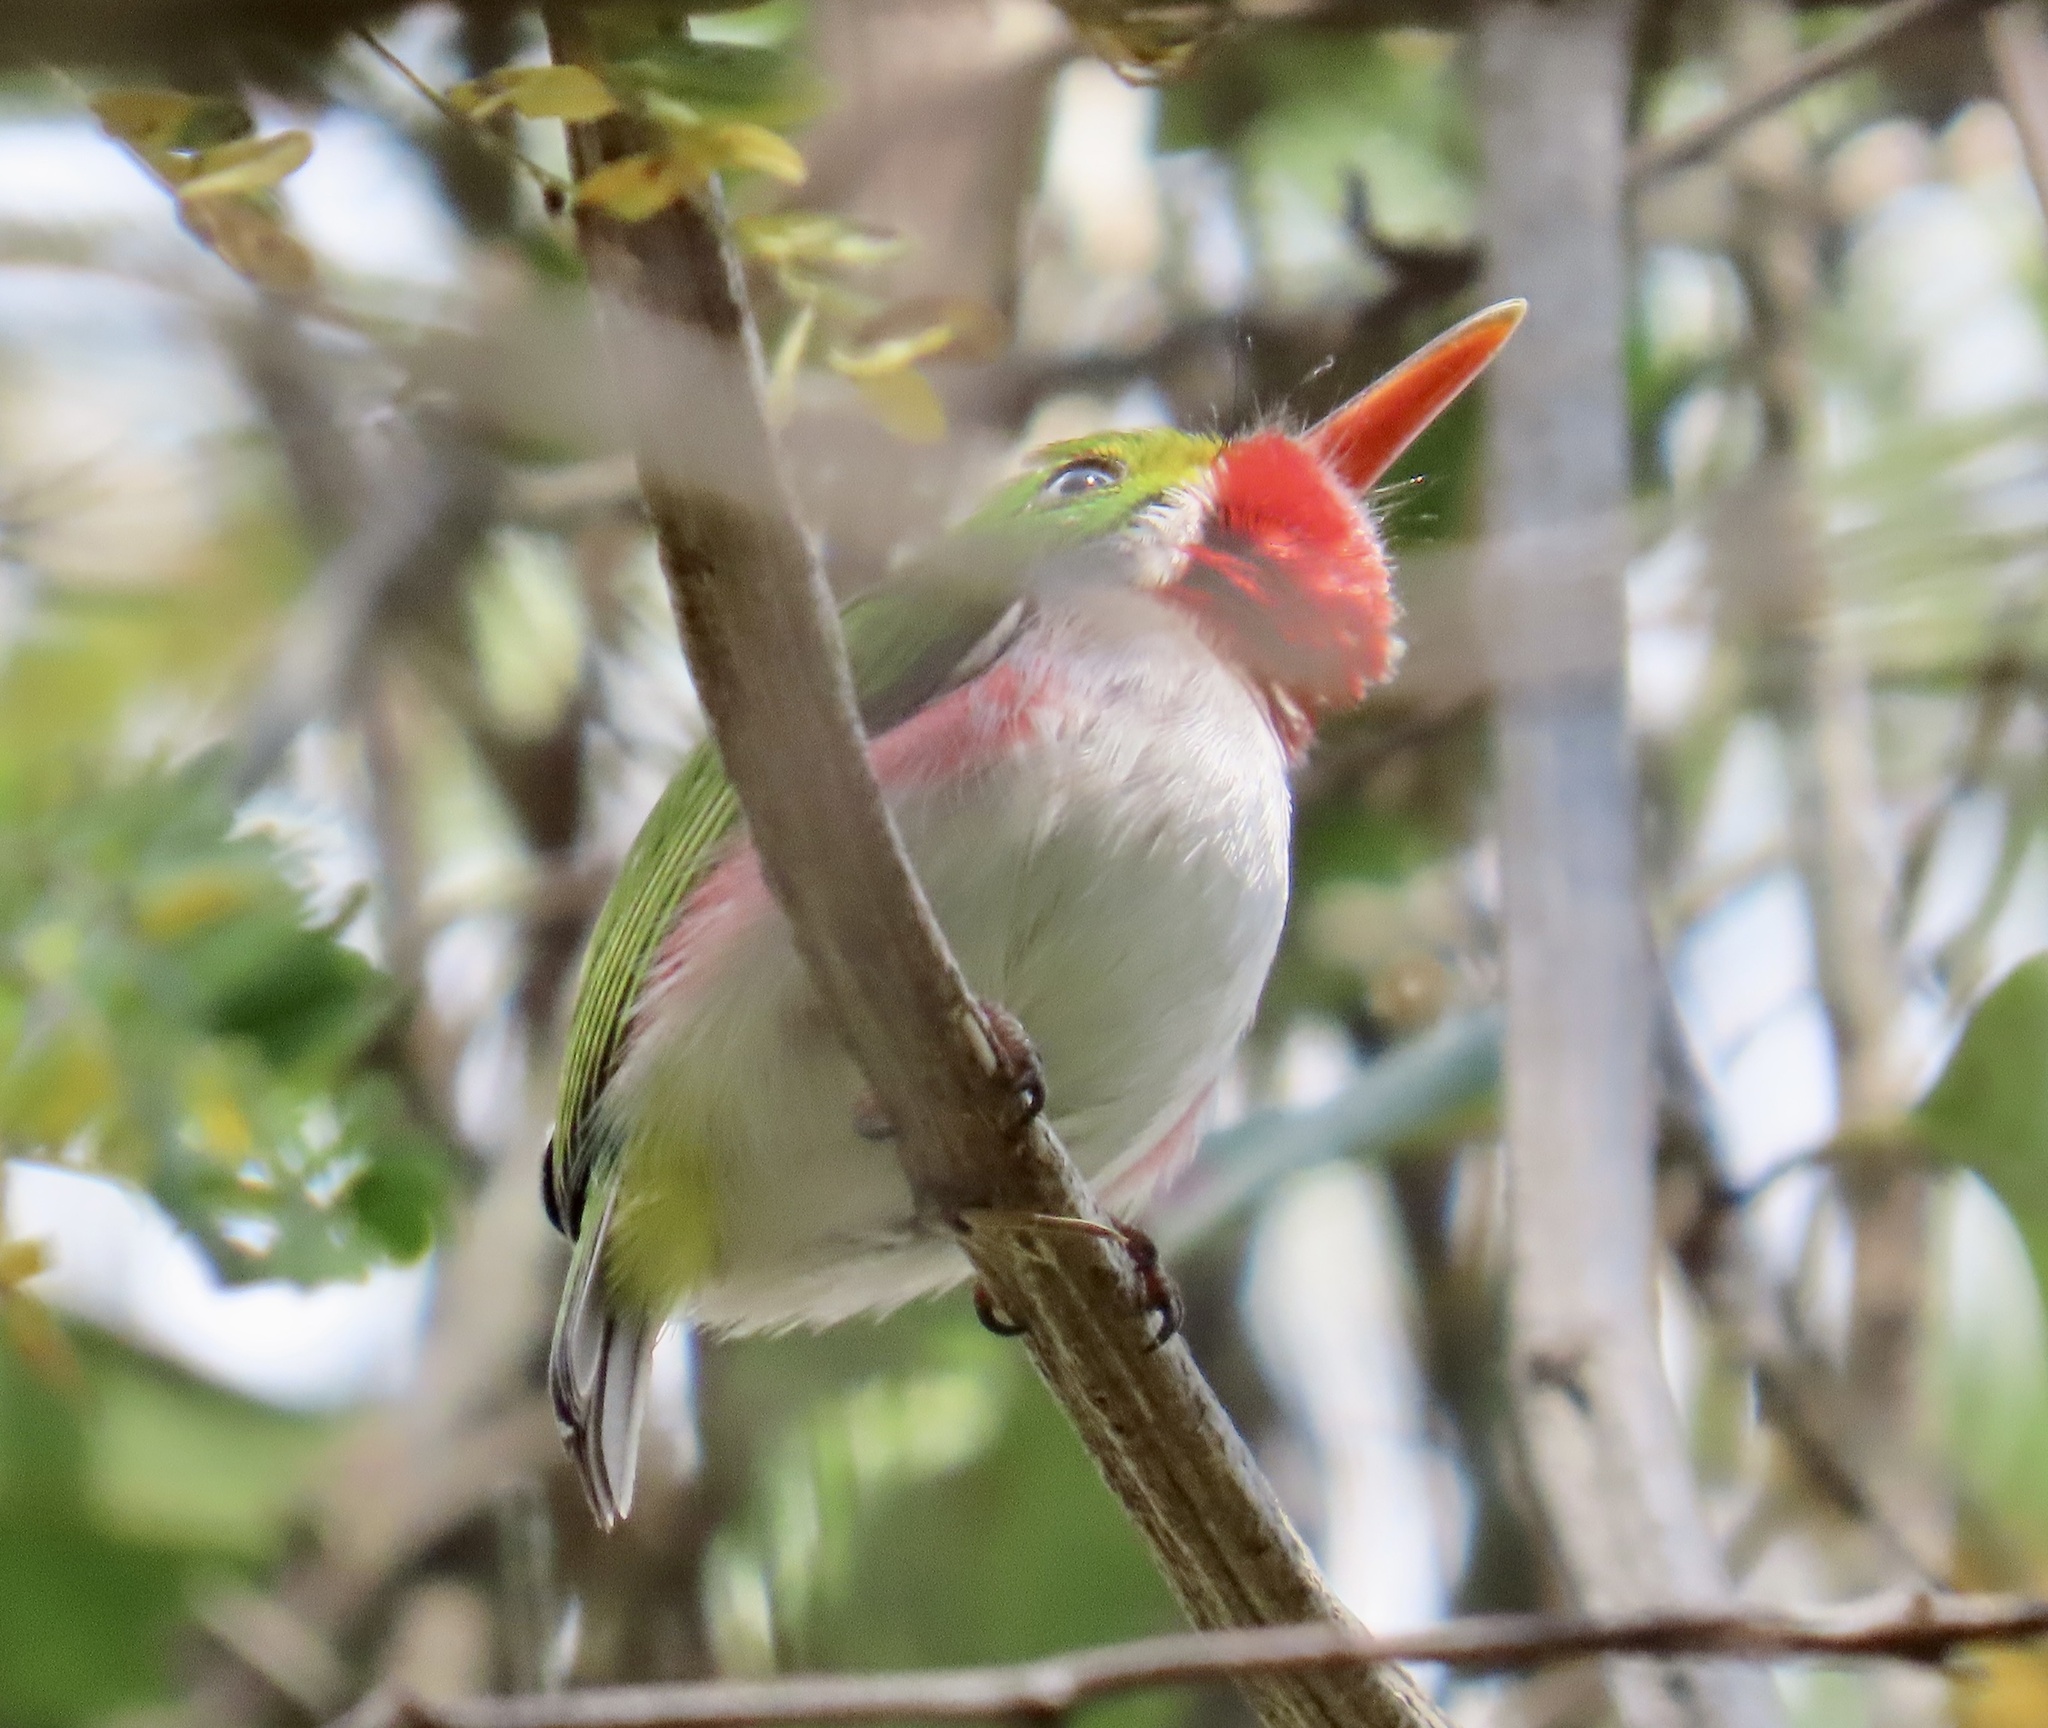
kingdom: Animalia
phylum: Chordata
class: Aves
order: Coraciiformes
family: Todidae
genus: Todus
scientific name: Todus multicolor
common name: Cuban tody
